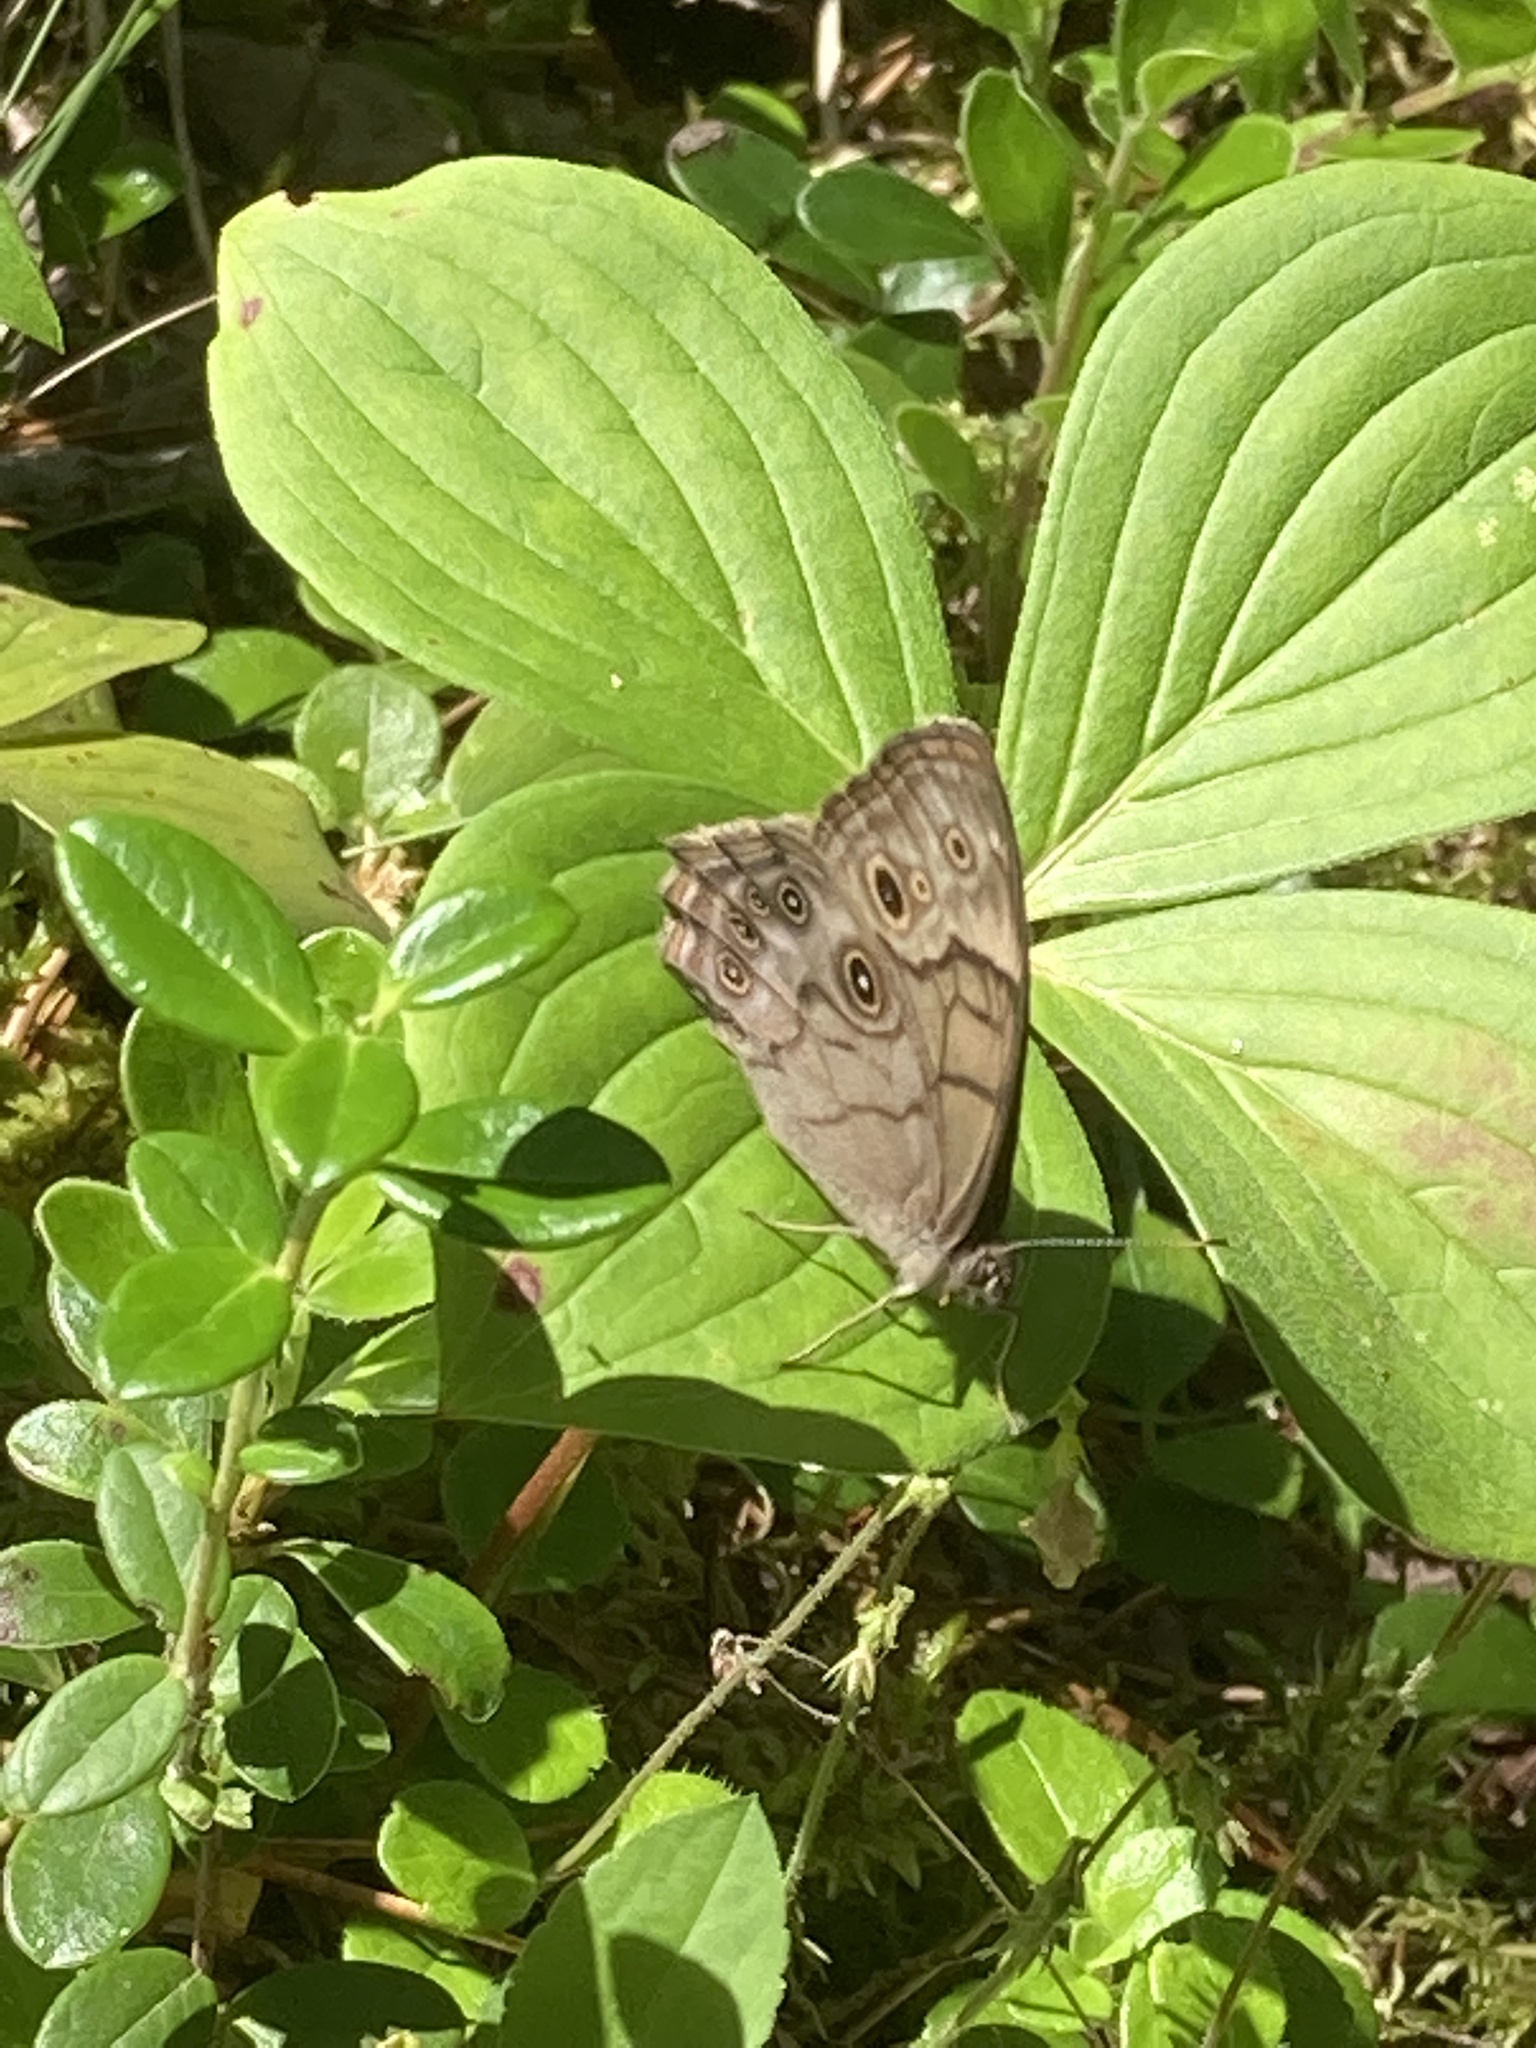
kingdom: Animalia
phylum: Arthropoda
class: Insecta
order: Lepidoptera
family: Nymphalidae
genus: Lethe
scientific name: Lethe anthedon
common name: Northern pearly-eye
